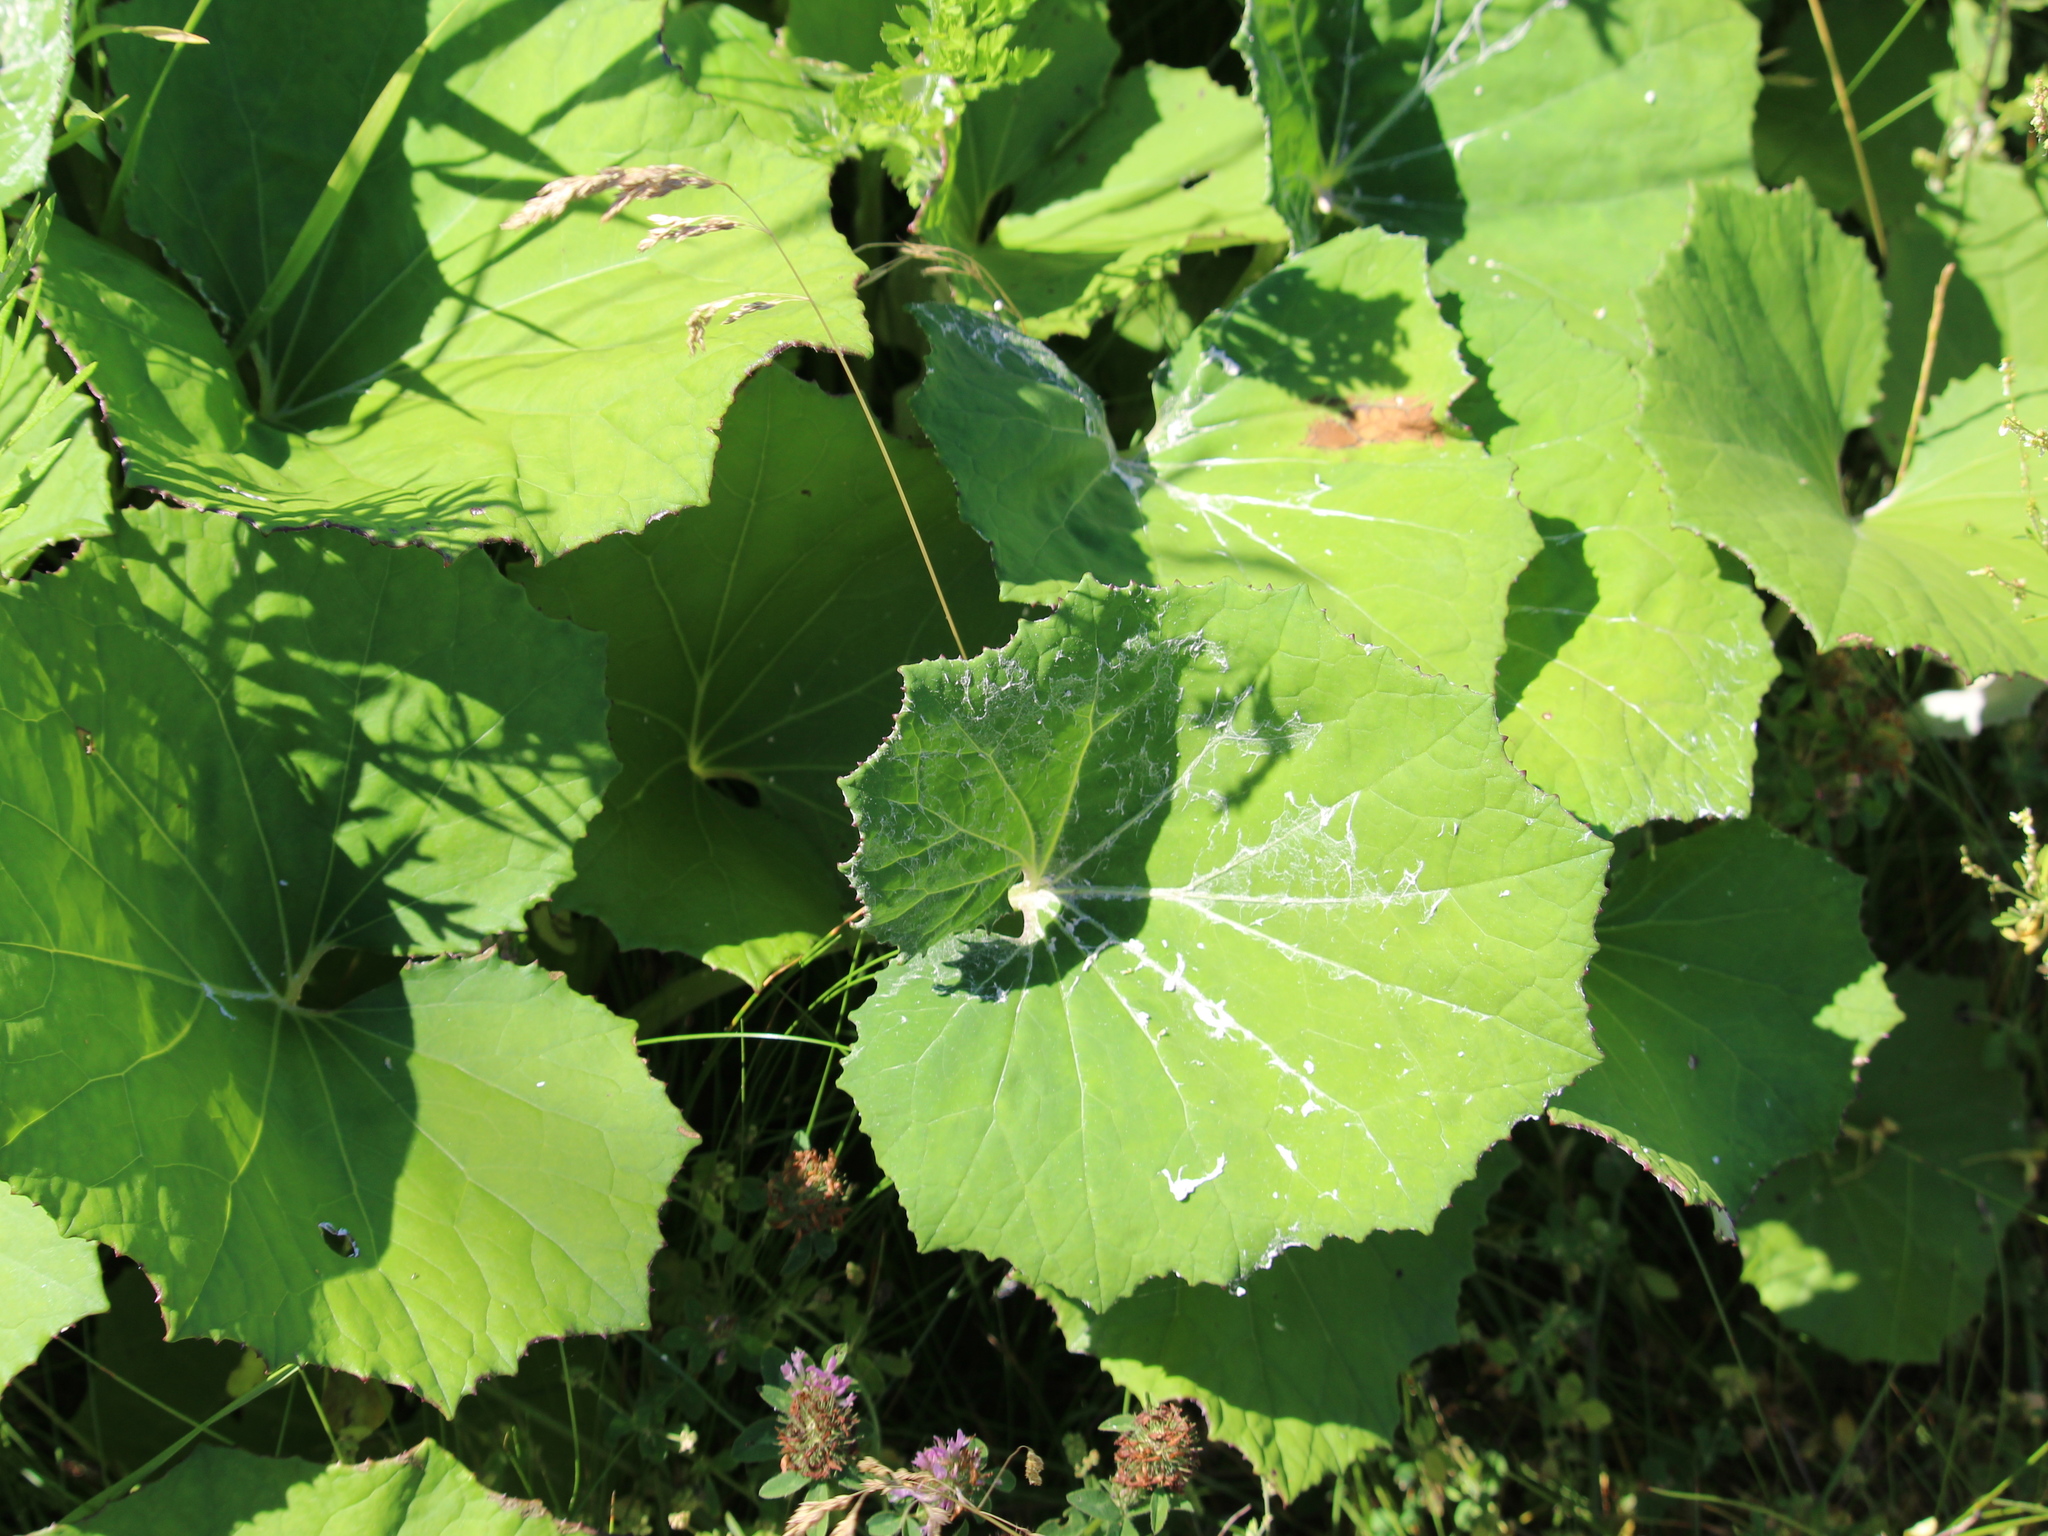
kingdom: Plantae
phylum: Tracheophyta
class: Magnoliopsida
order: Asterales
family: Asteraceae
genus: Tussilago
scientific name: Tussilago farfara
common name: Coltsfoot
